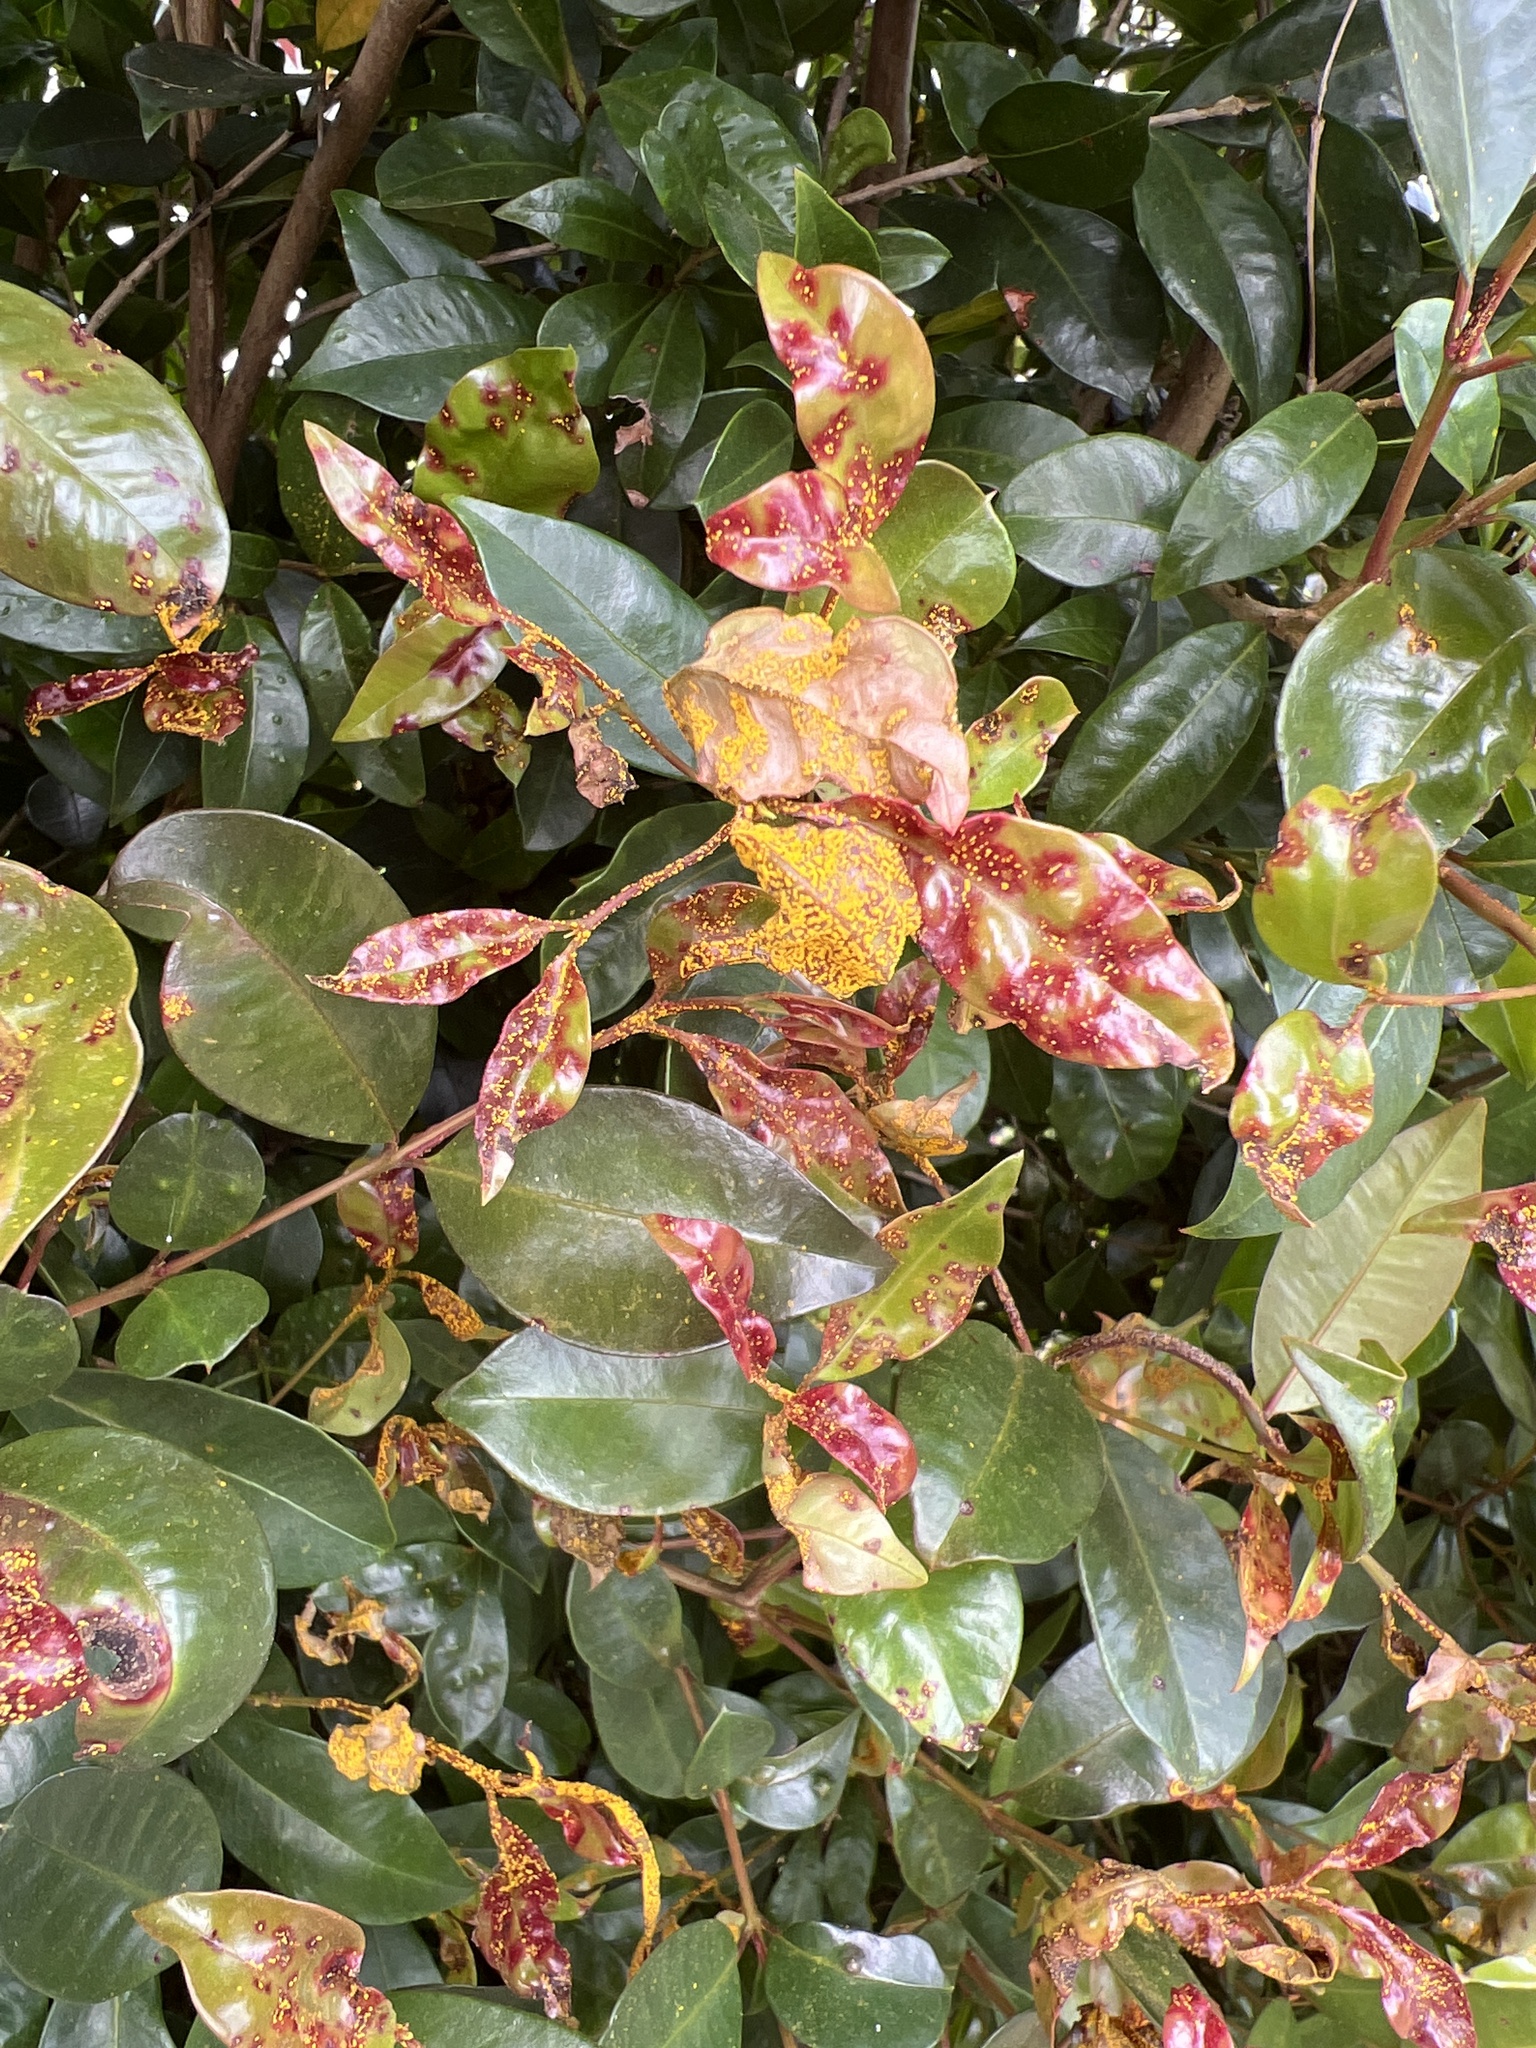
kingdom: Fungi
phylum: Basidiomycota
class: Pucciniomycetes
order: Pucciniales
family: Sphaerophragmiaceae
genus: Austropuccinia
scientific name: Austropuccinia psidii
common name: Myrtle rust
